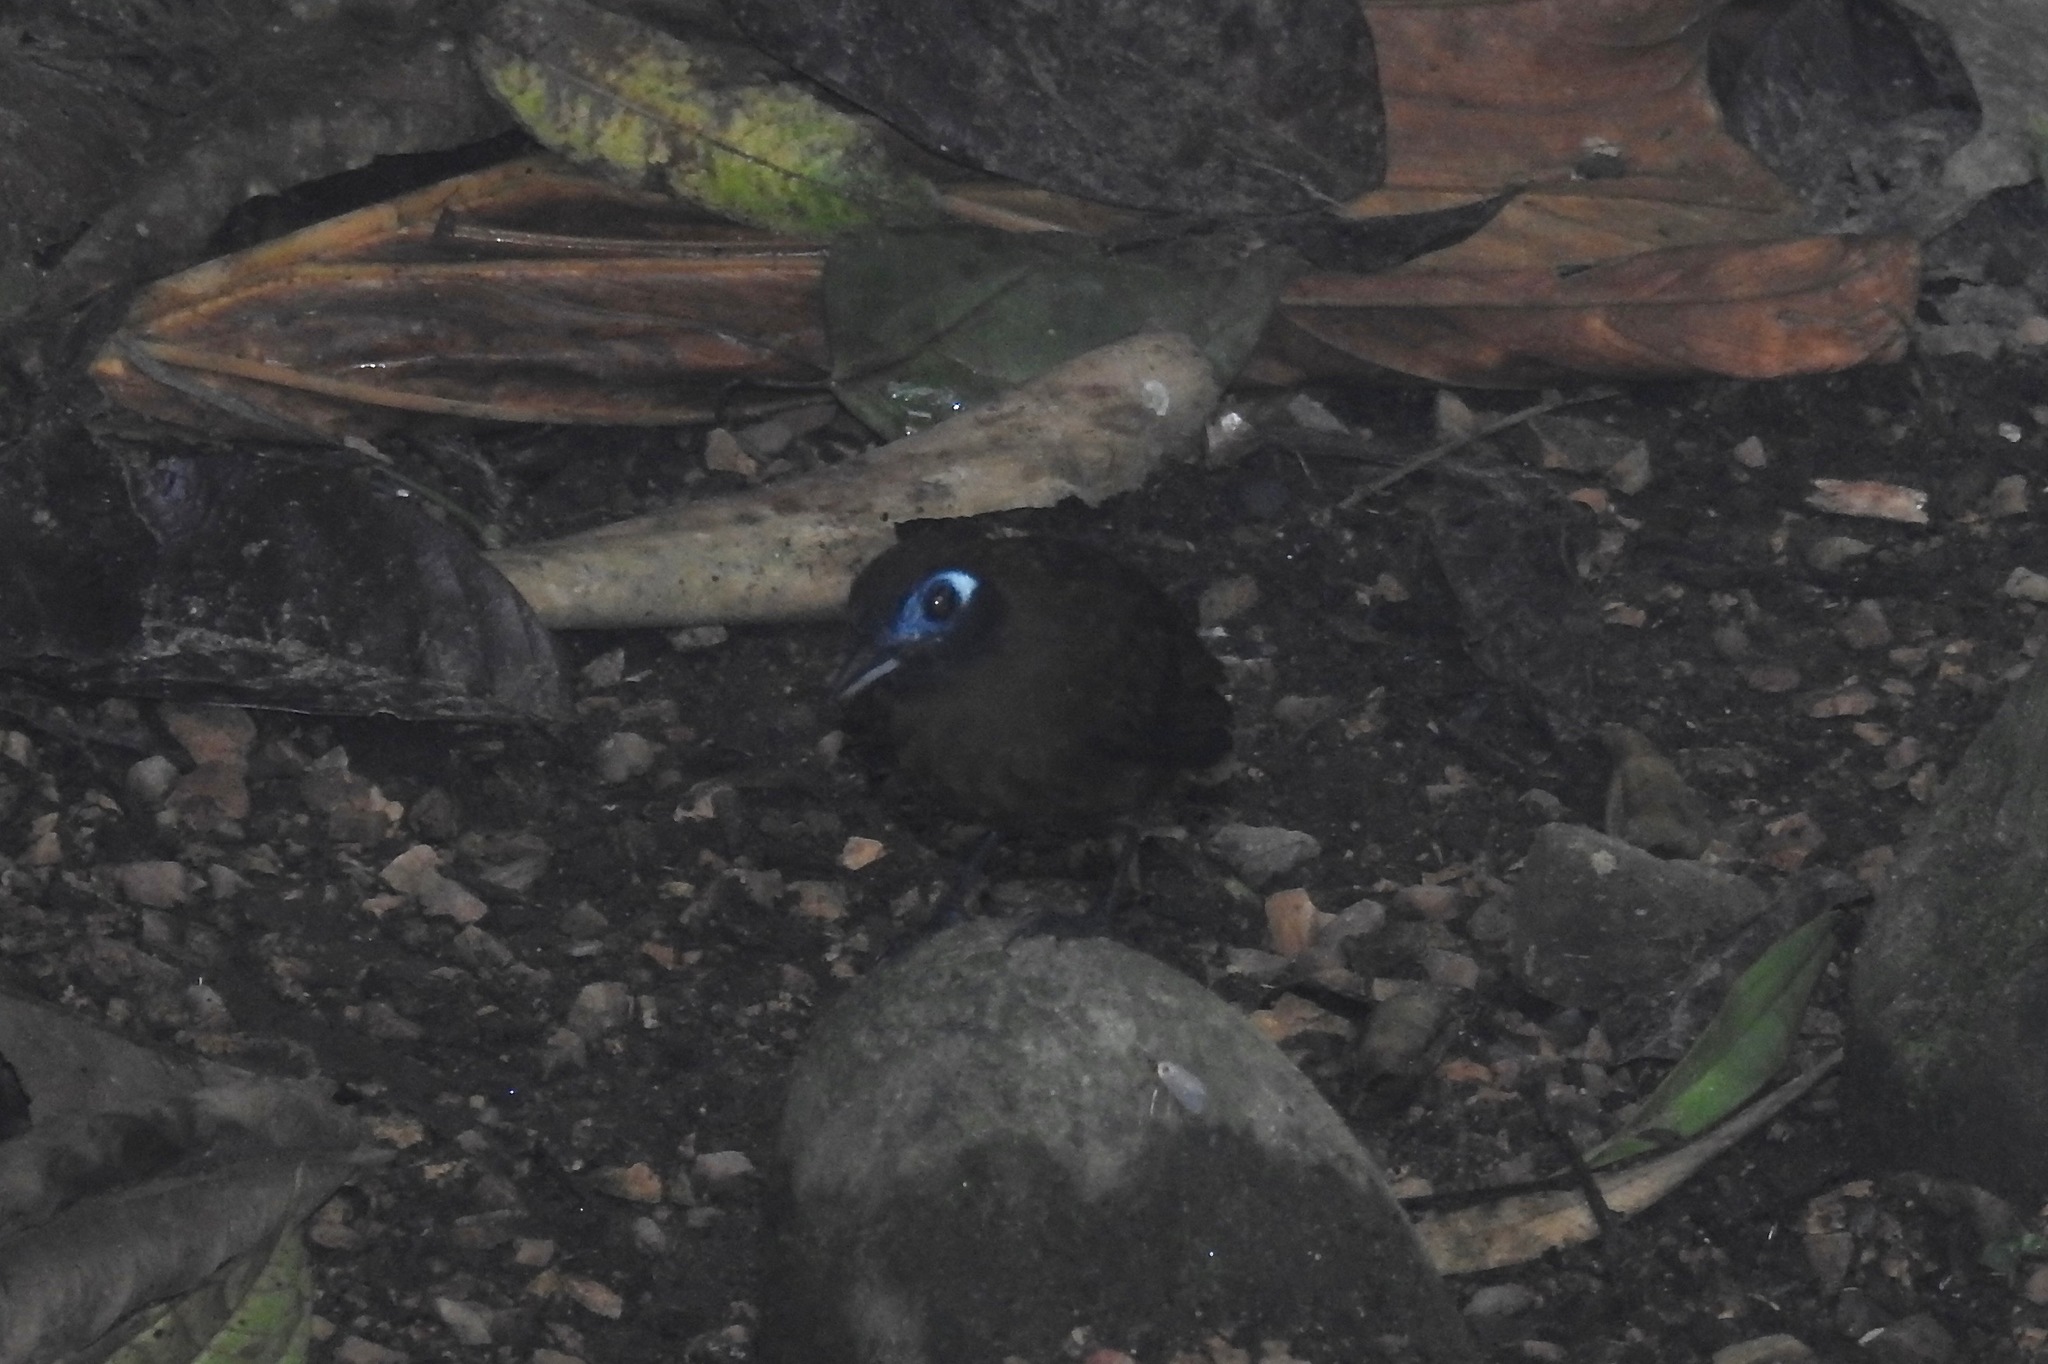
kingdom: Animalia
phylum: Chordata
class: Aves
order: Passeriformes
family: Thamnophilidae
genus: Hafferia
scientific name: Hafferia zeledoni
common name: Zeledon's antbird
